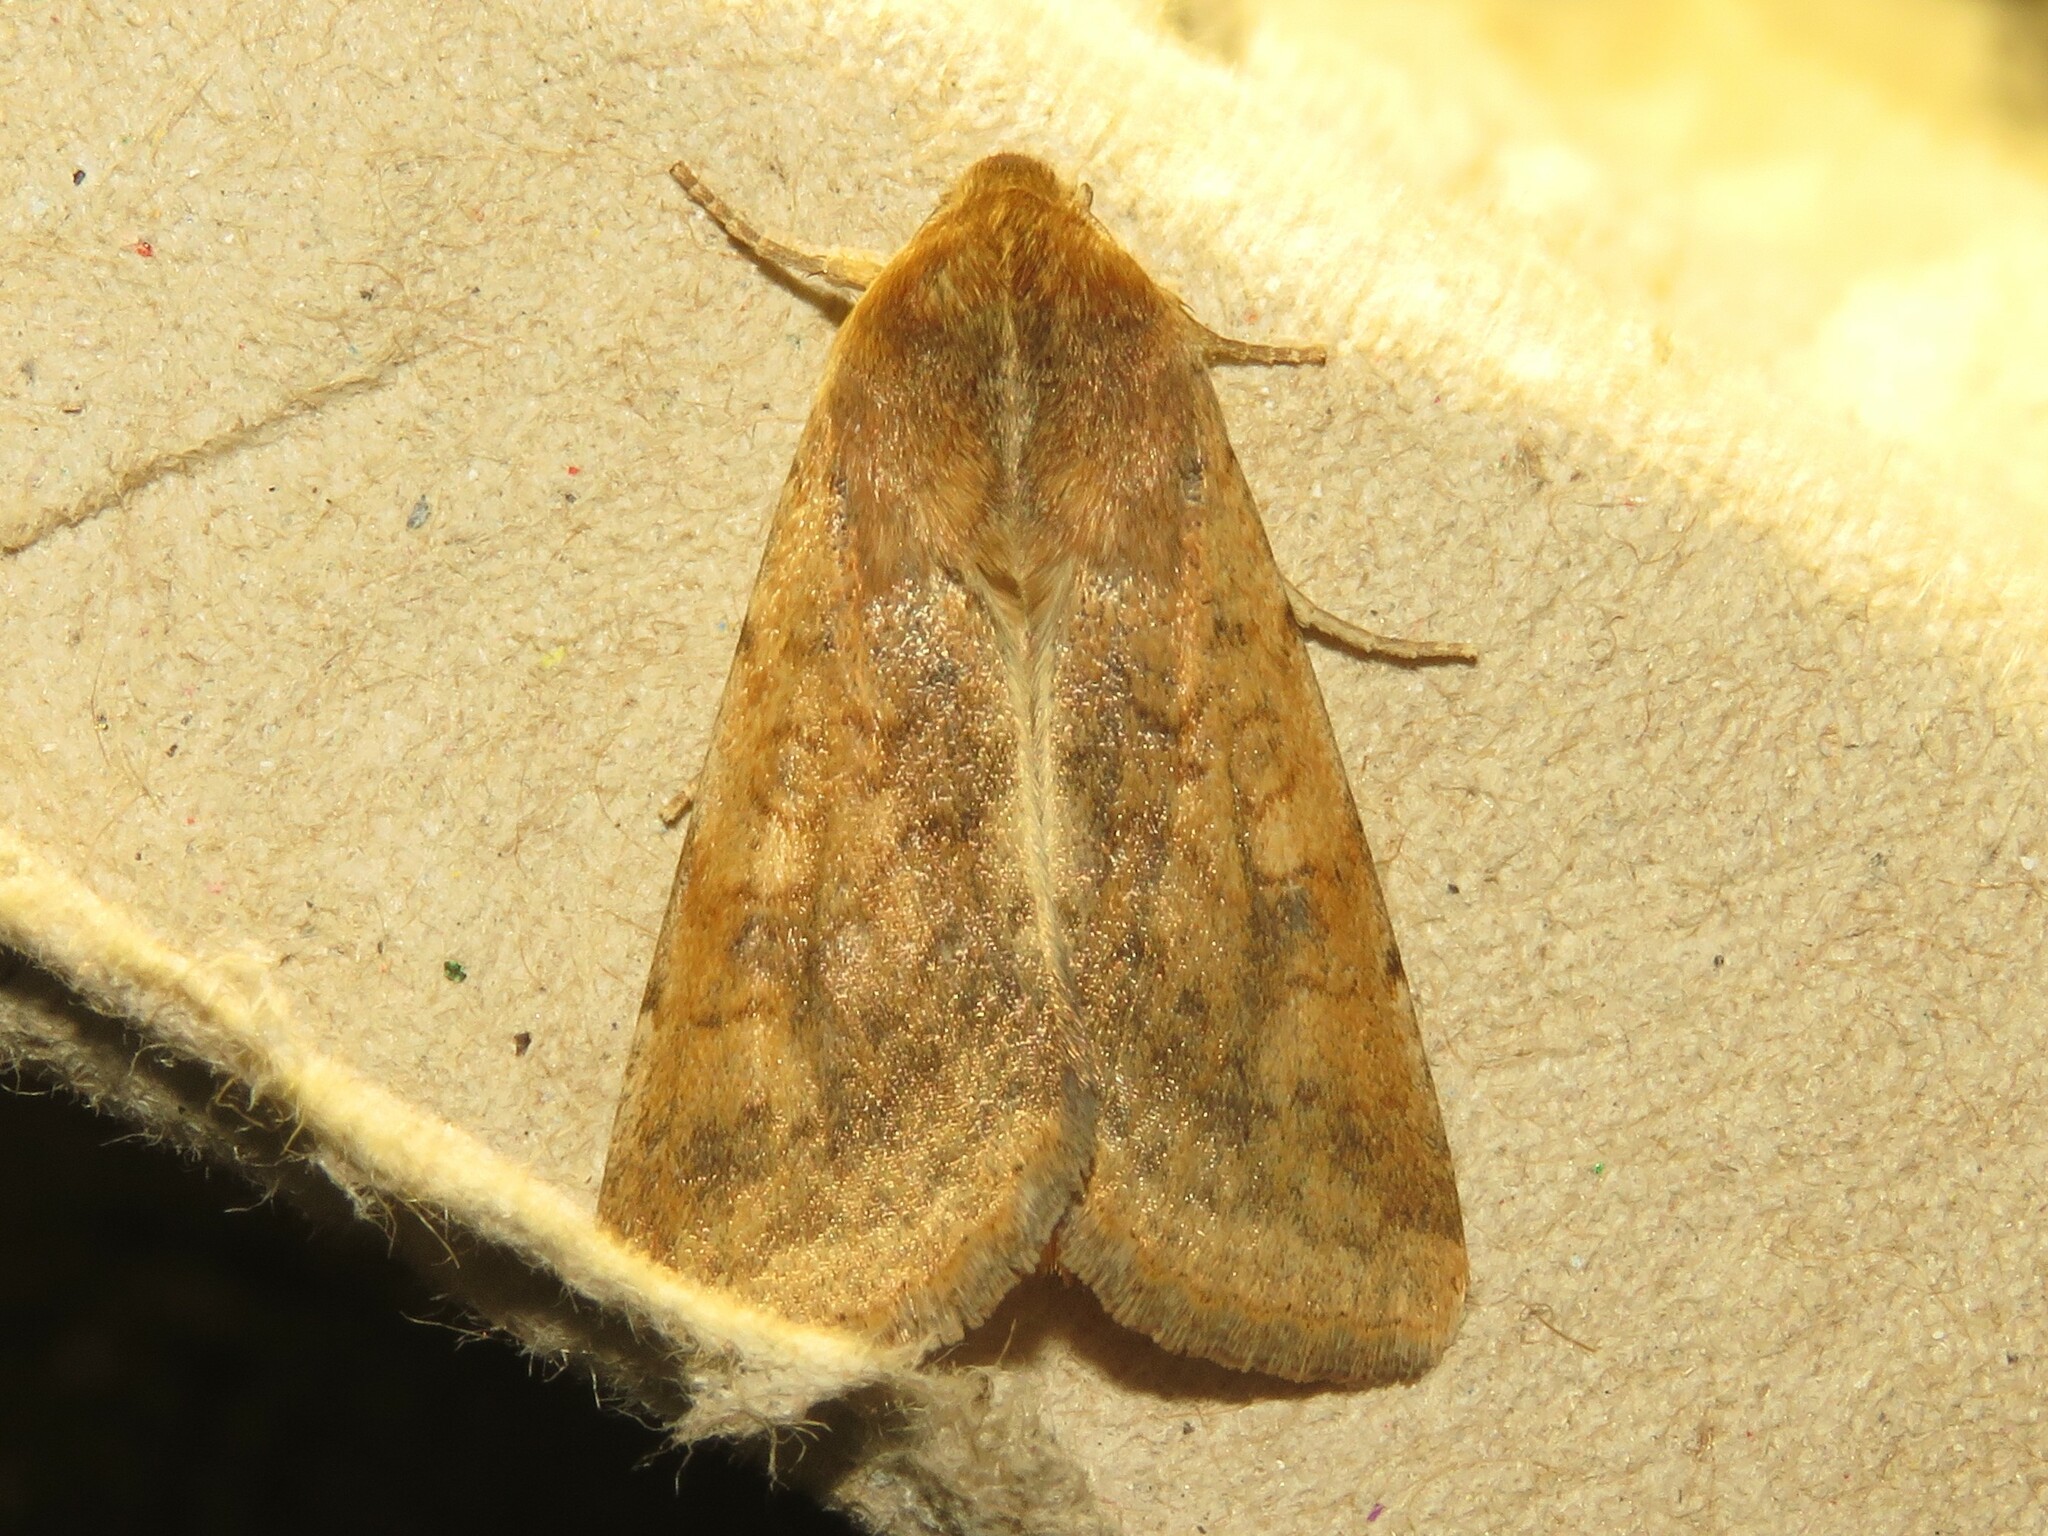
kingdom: Animalia
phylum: Arthropoda
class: Insecta
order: Lepidoptera
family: Noctuidae
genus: Helicoverpa
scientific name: Helicoverpa zea
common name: Bollworm
